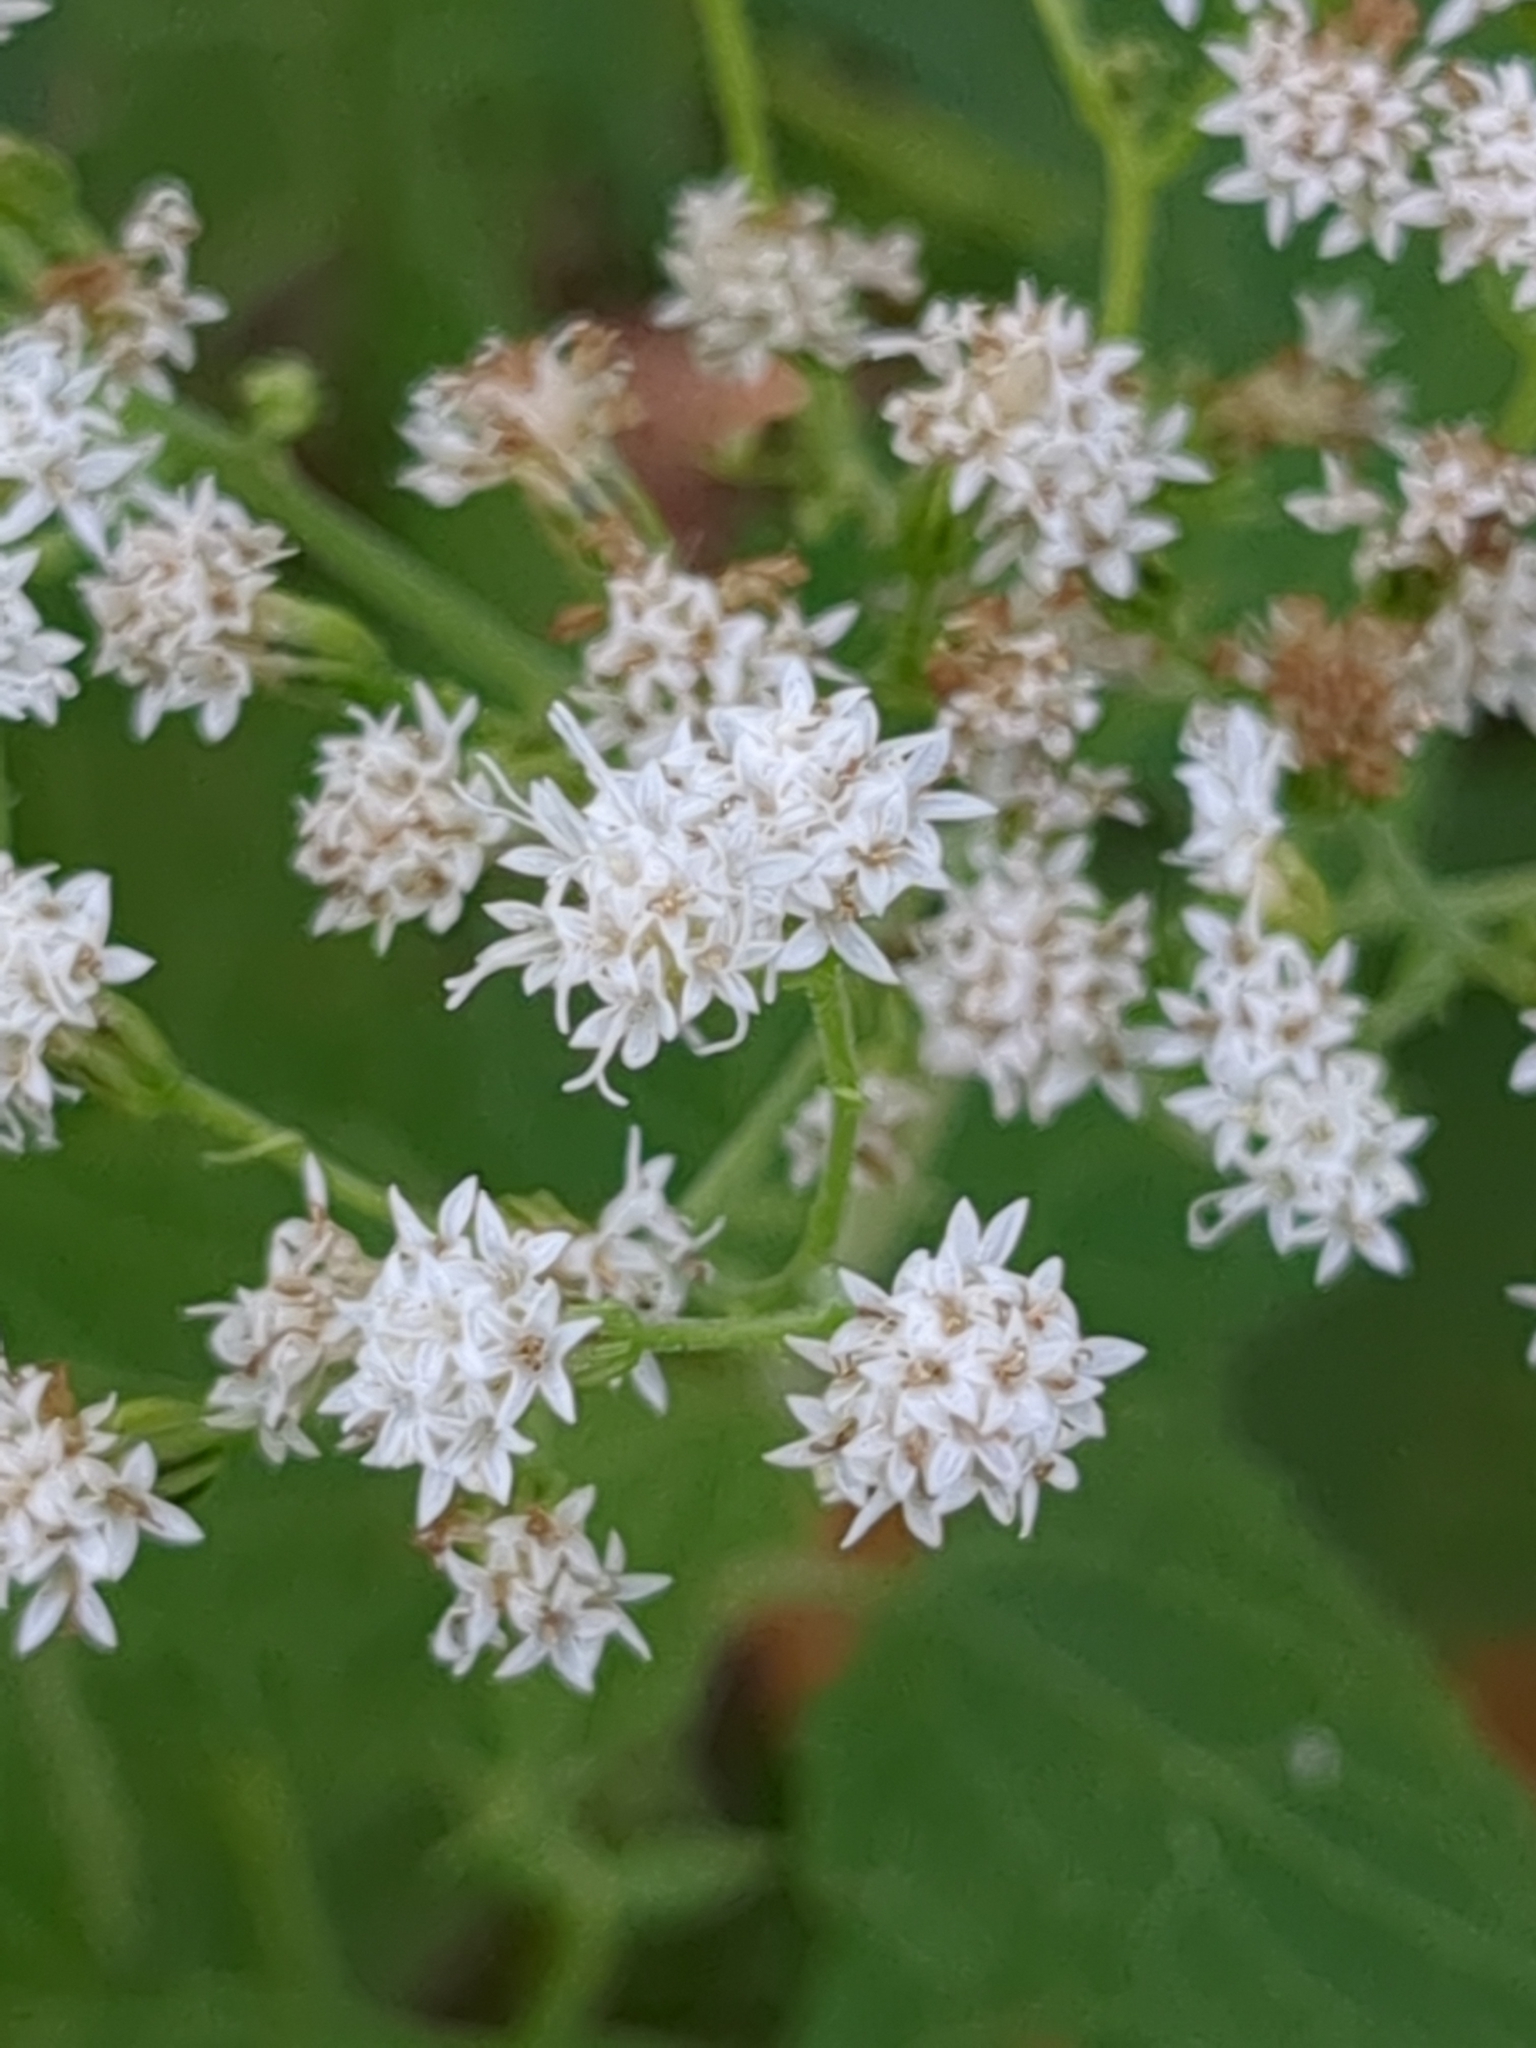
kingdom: Plantae
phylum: Tracheophyta
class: Magnoliopsida
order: Asterales
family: Asteraceae
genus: Ageratina
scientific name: Ageratina altissima
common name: White snakeroot
